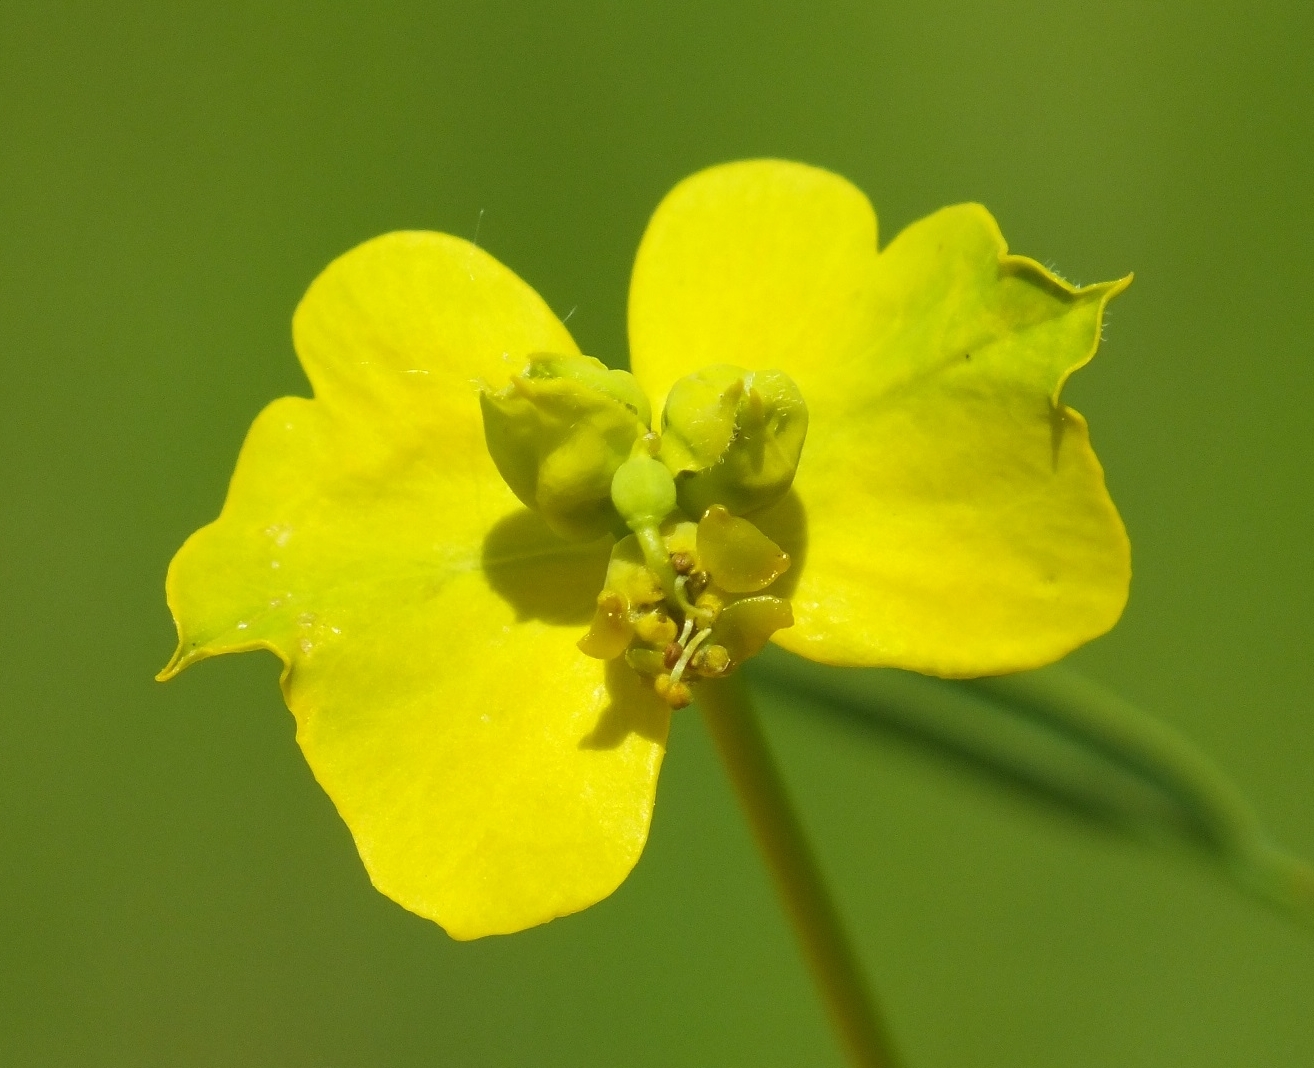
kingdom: Plantae
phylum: Tracheophyta
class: Magnoliopsida
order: Malpighiales
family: Euphorbiaceae
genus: Euphorbia
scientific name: Euphorbia virgata
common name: Leafy spurge
